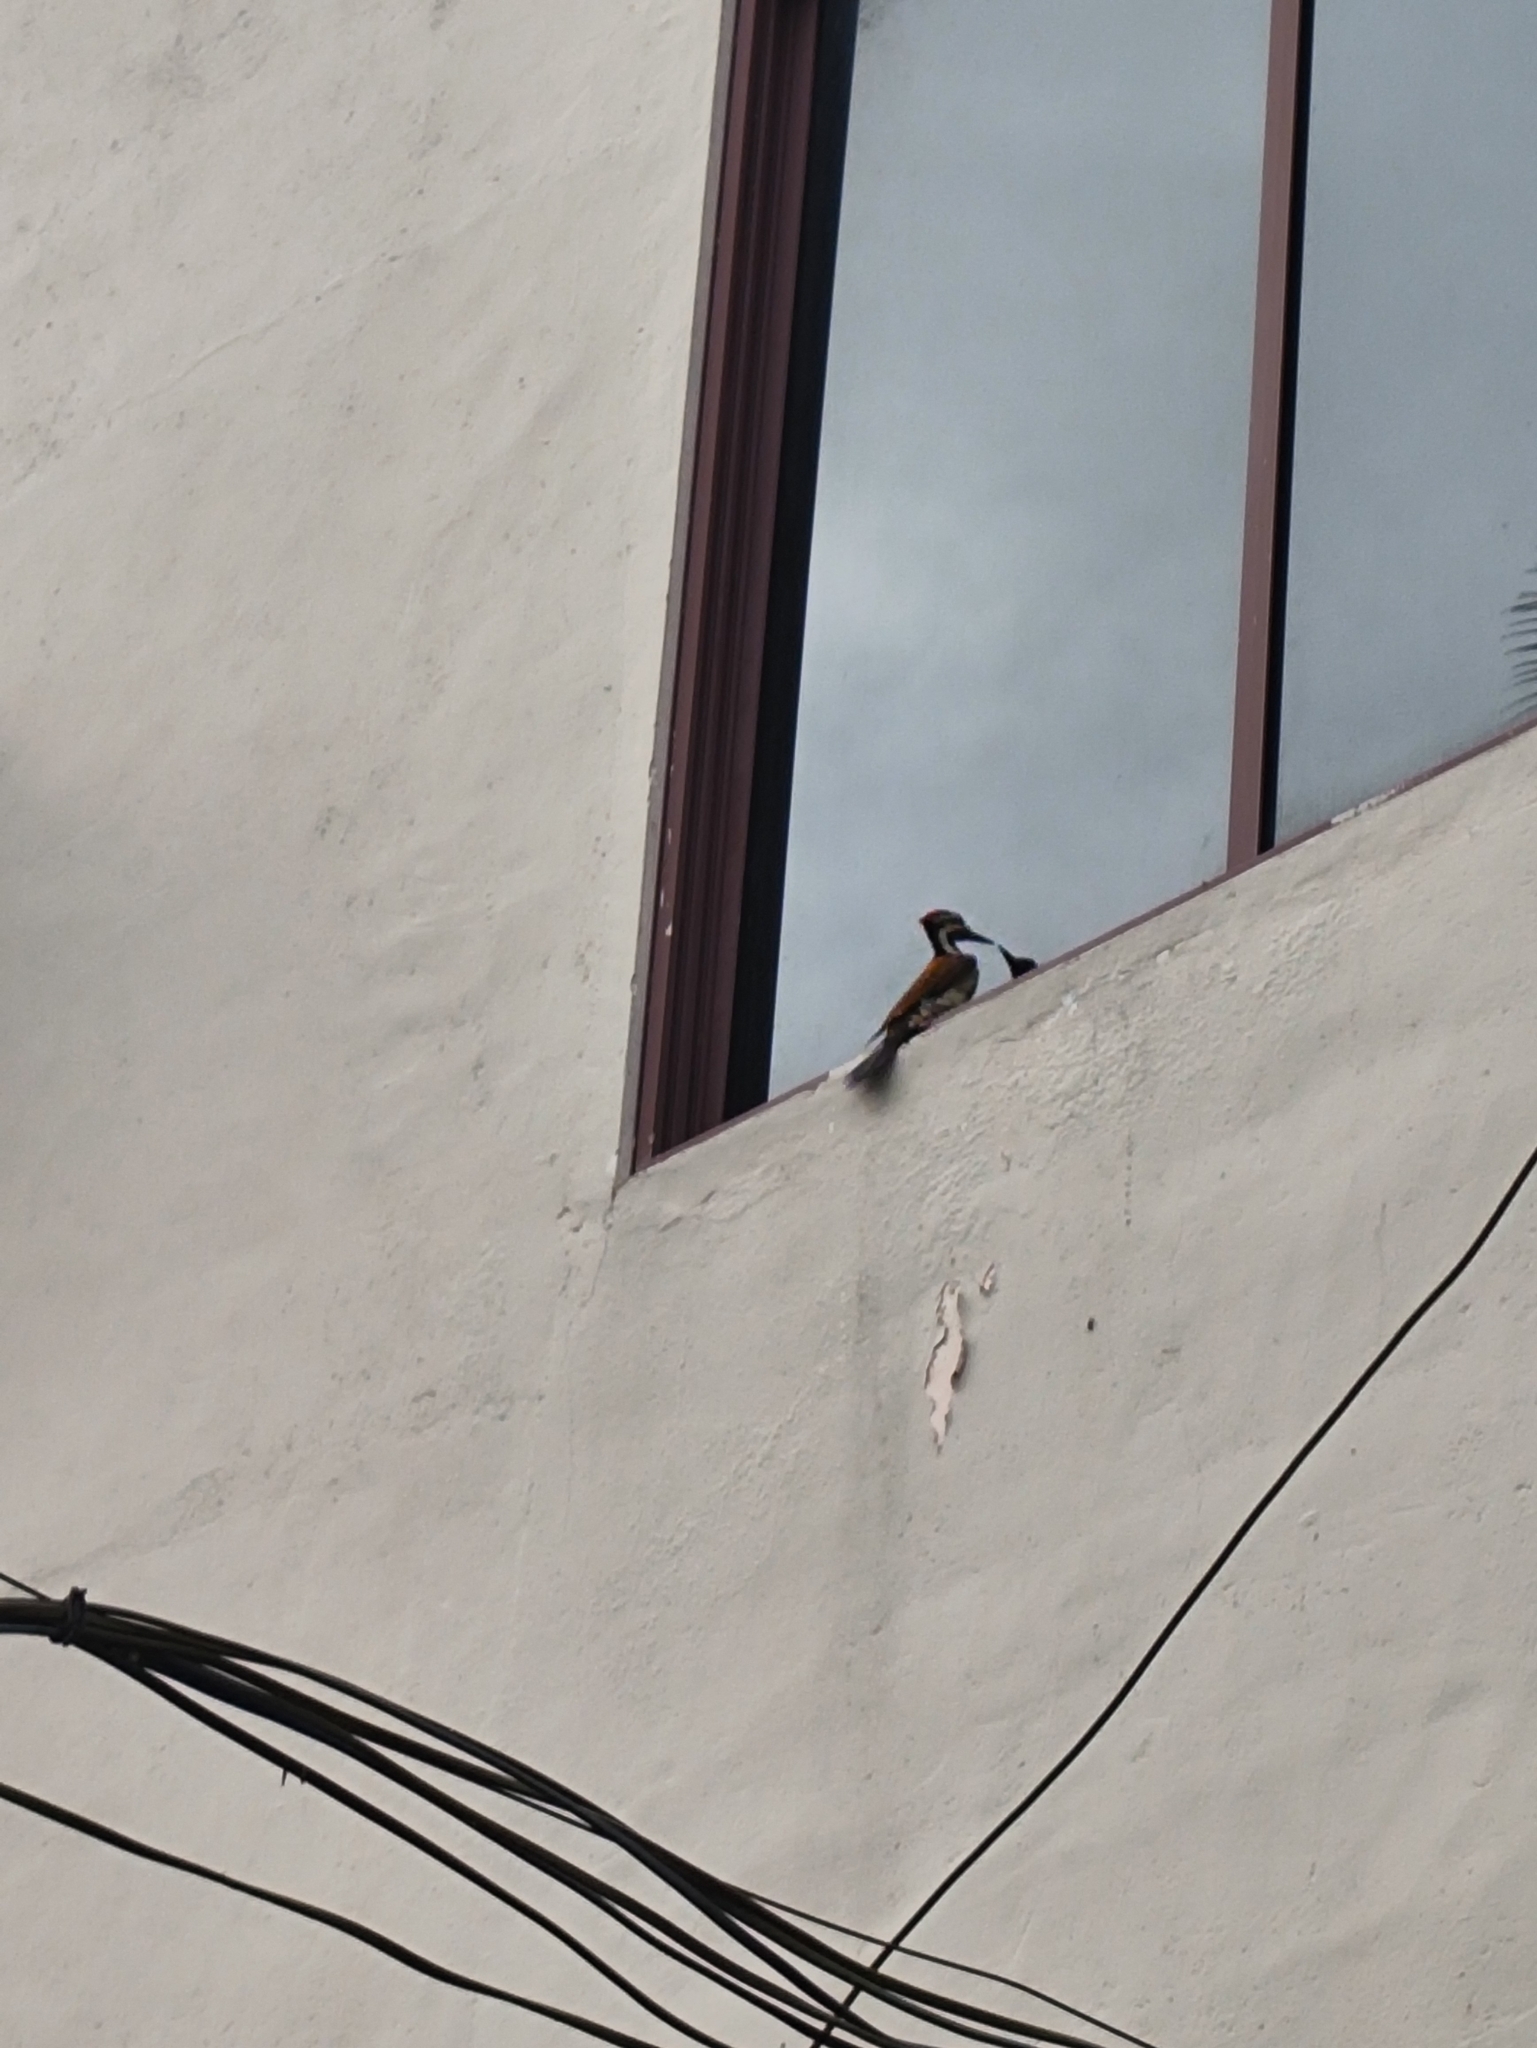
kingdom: Animalia
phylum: Chordata
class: Aves
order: Piciformes
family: Picidae
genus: Dinopium
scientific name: Dinopium benghalense
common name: Black-rumped flameback
